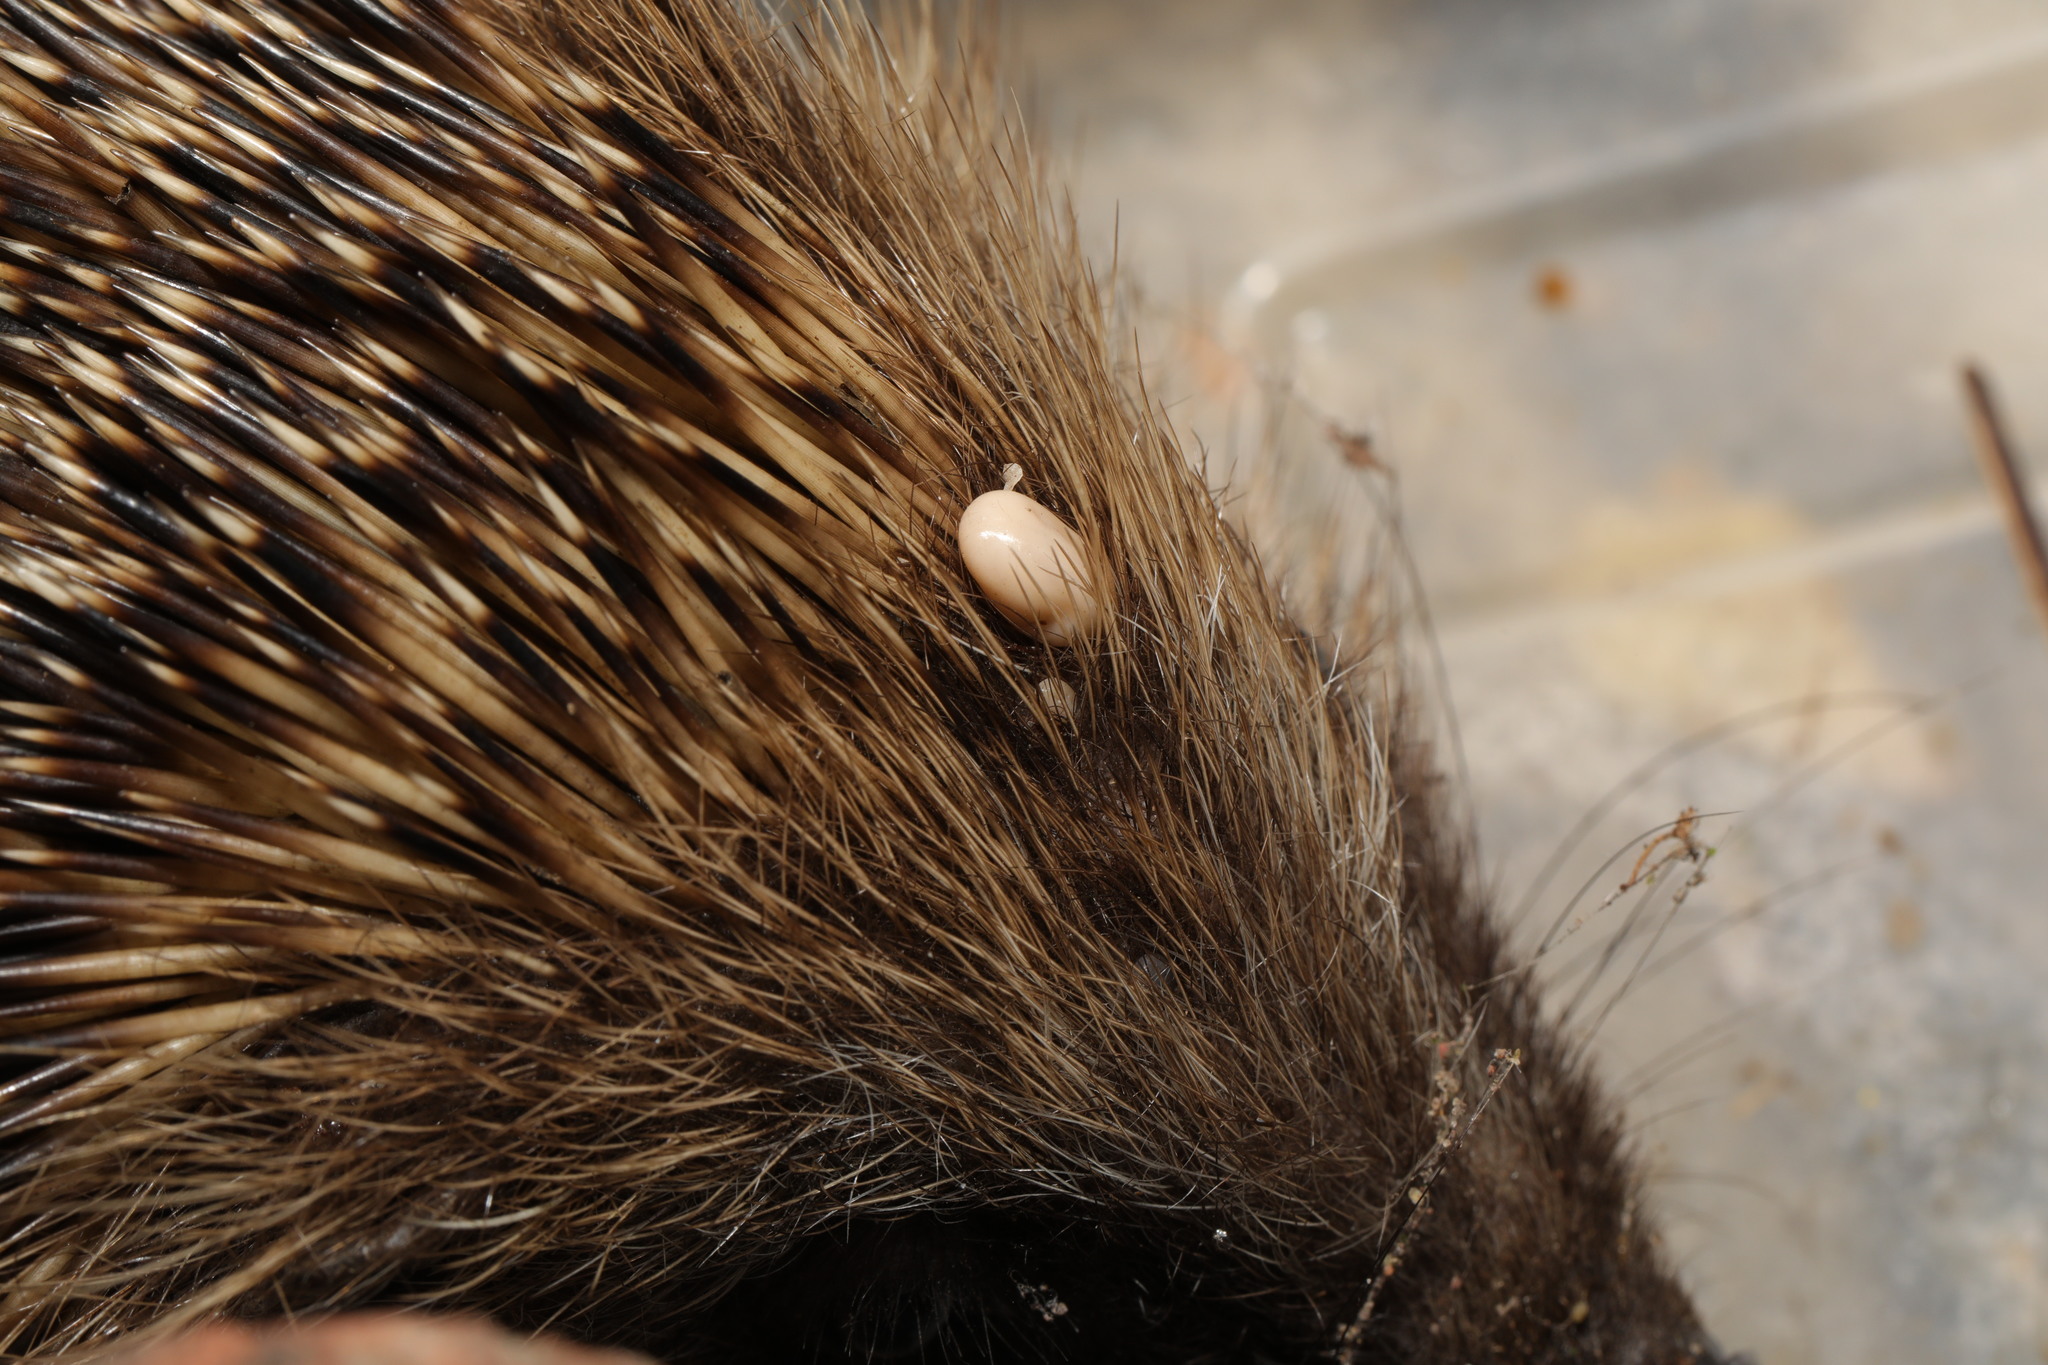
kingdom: Animalia
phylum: Arthropoda
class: Arachnida
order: Ixodida
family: Ixodidae
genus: Ixodes
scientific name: Ixodes hexagonus
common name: Hedgehog tick
